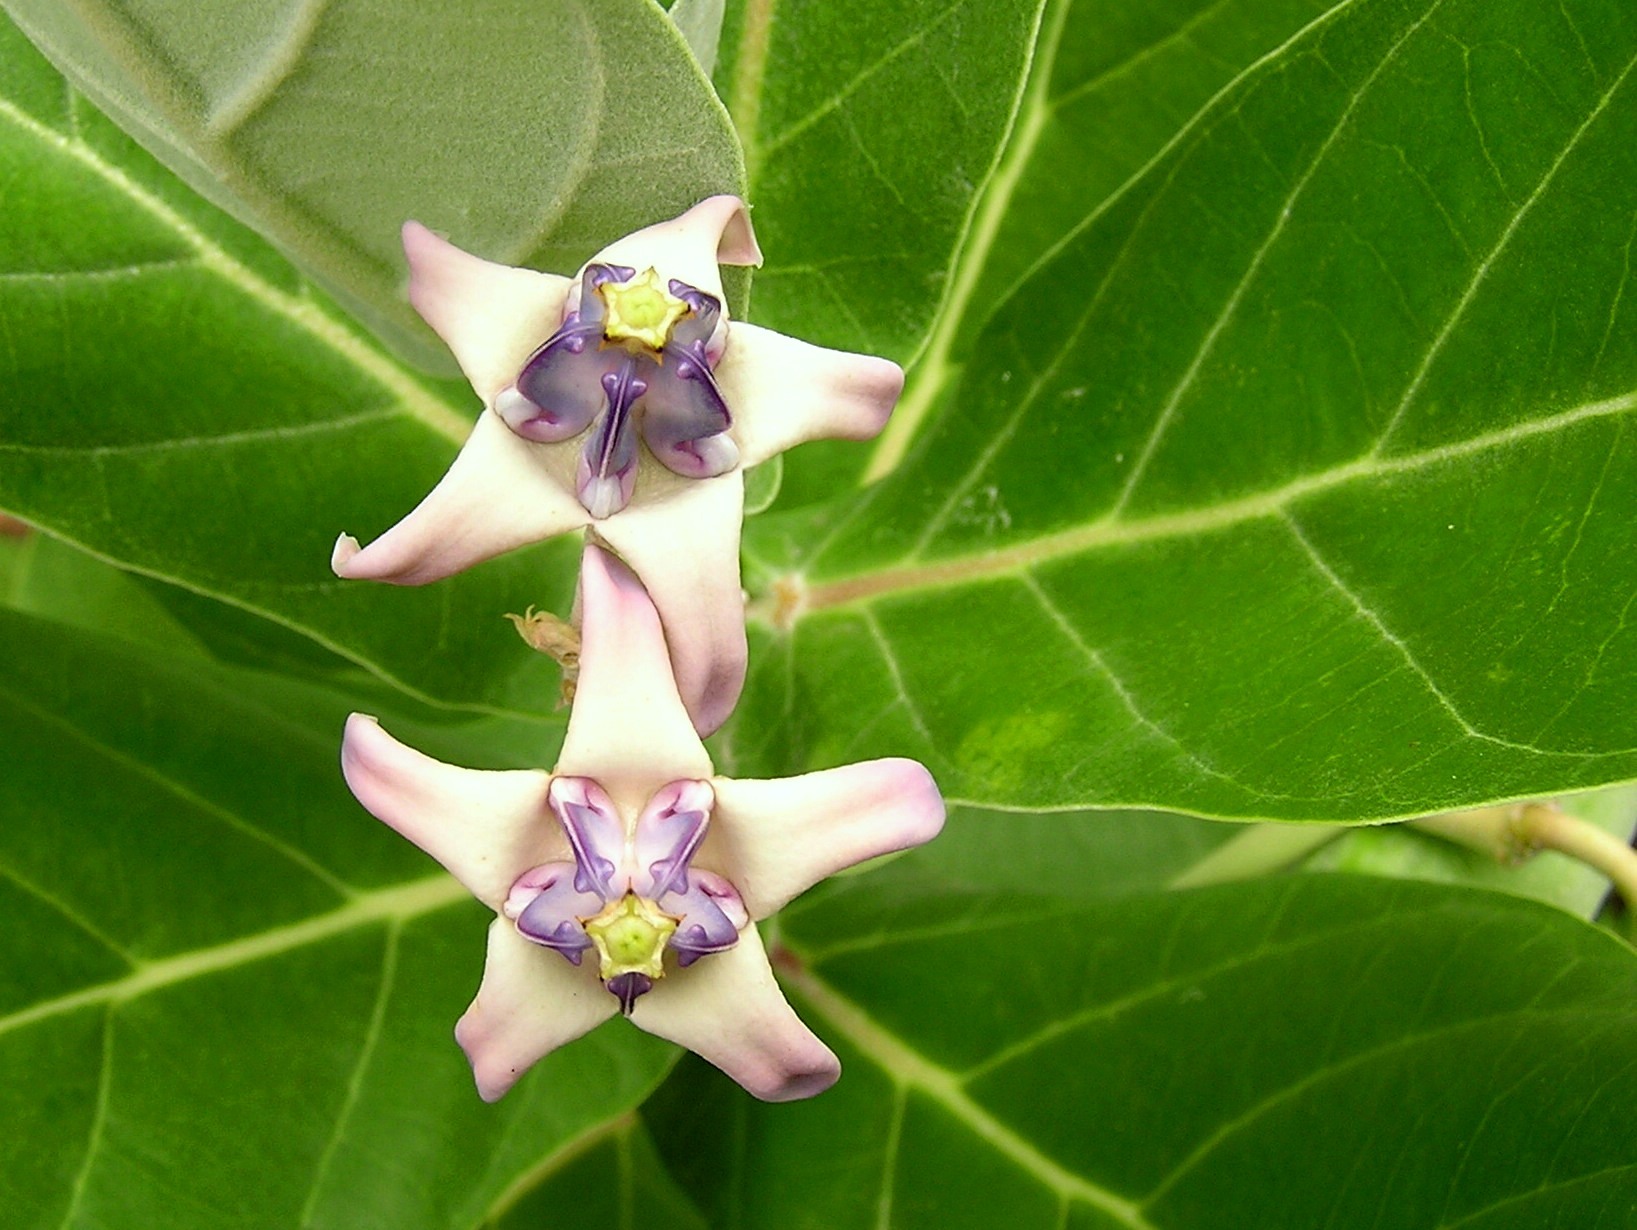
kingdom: Plantae
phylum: Tracheophyta
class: Magnoliopsida
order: Gentianales
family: Apocynaceae
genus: Calotropis
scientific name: Calotropis gigantea
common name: Crown flower
